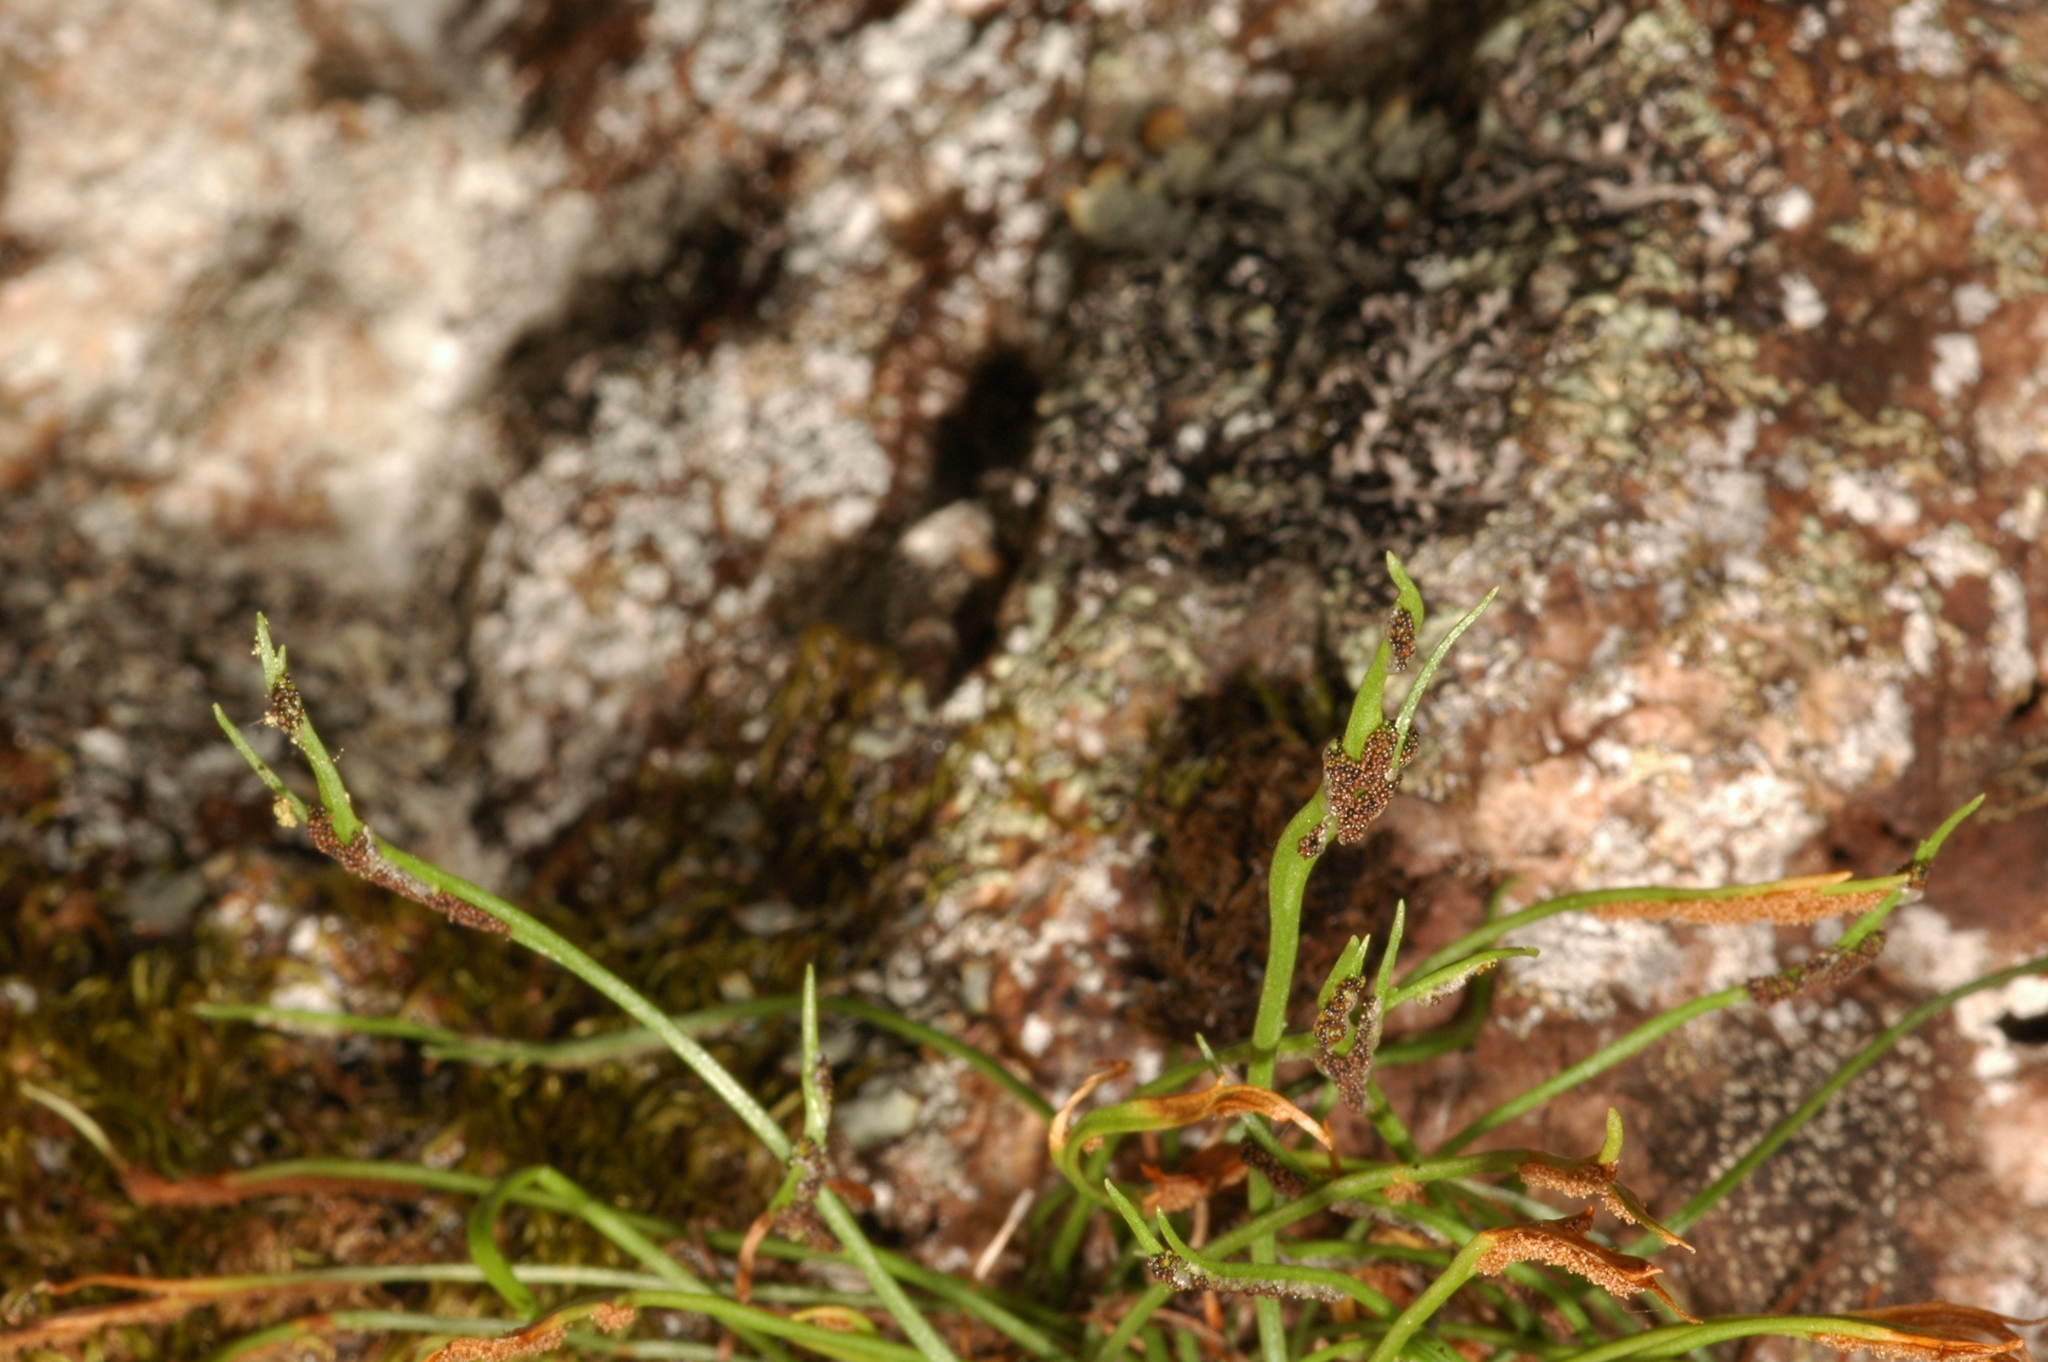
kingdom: Plantae
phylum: Tracheophyta
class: Polypodiopsida
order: Polypodiales
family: Aspleniaceae
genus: Asplenium
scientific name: Asplenium septentrionale
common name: Forked spleenwort
